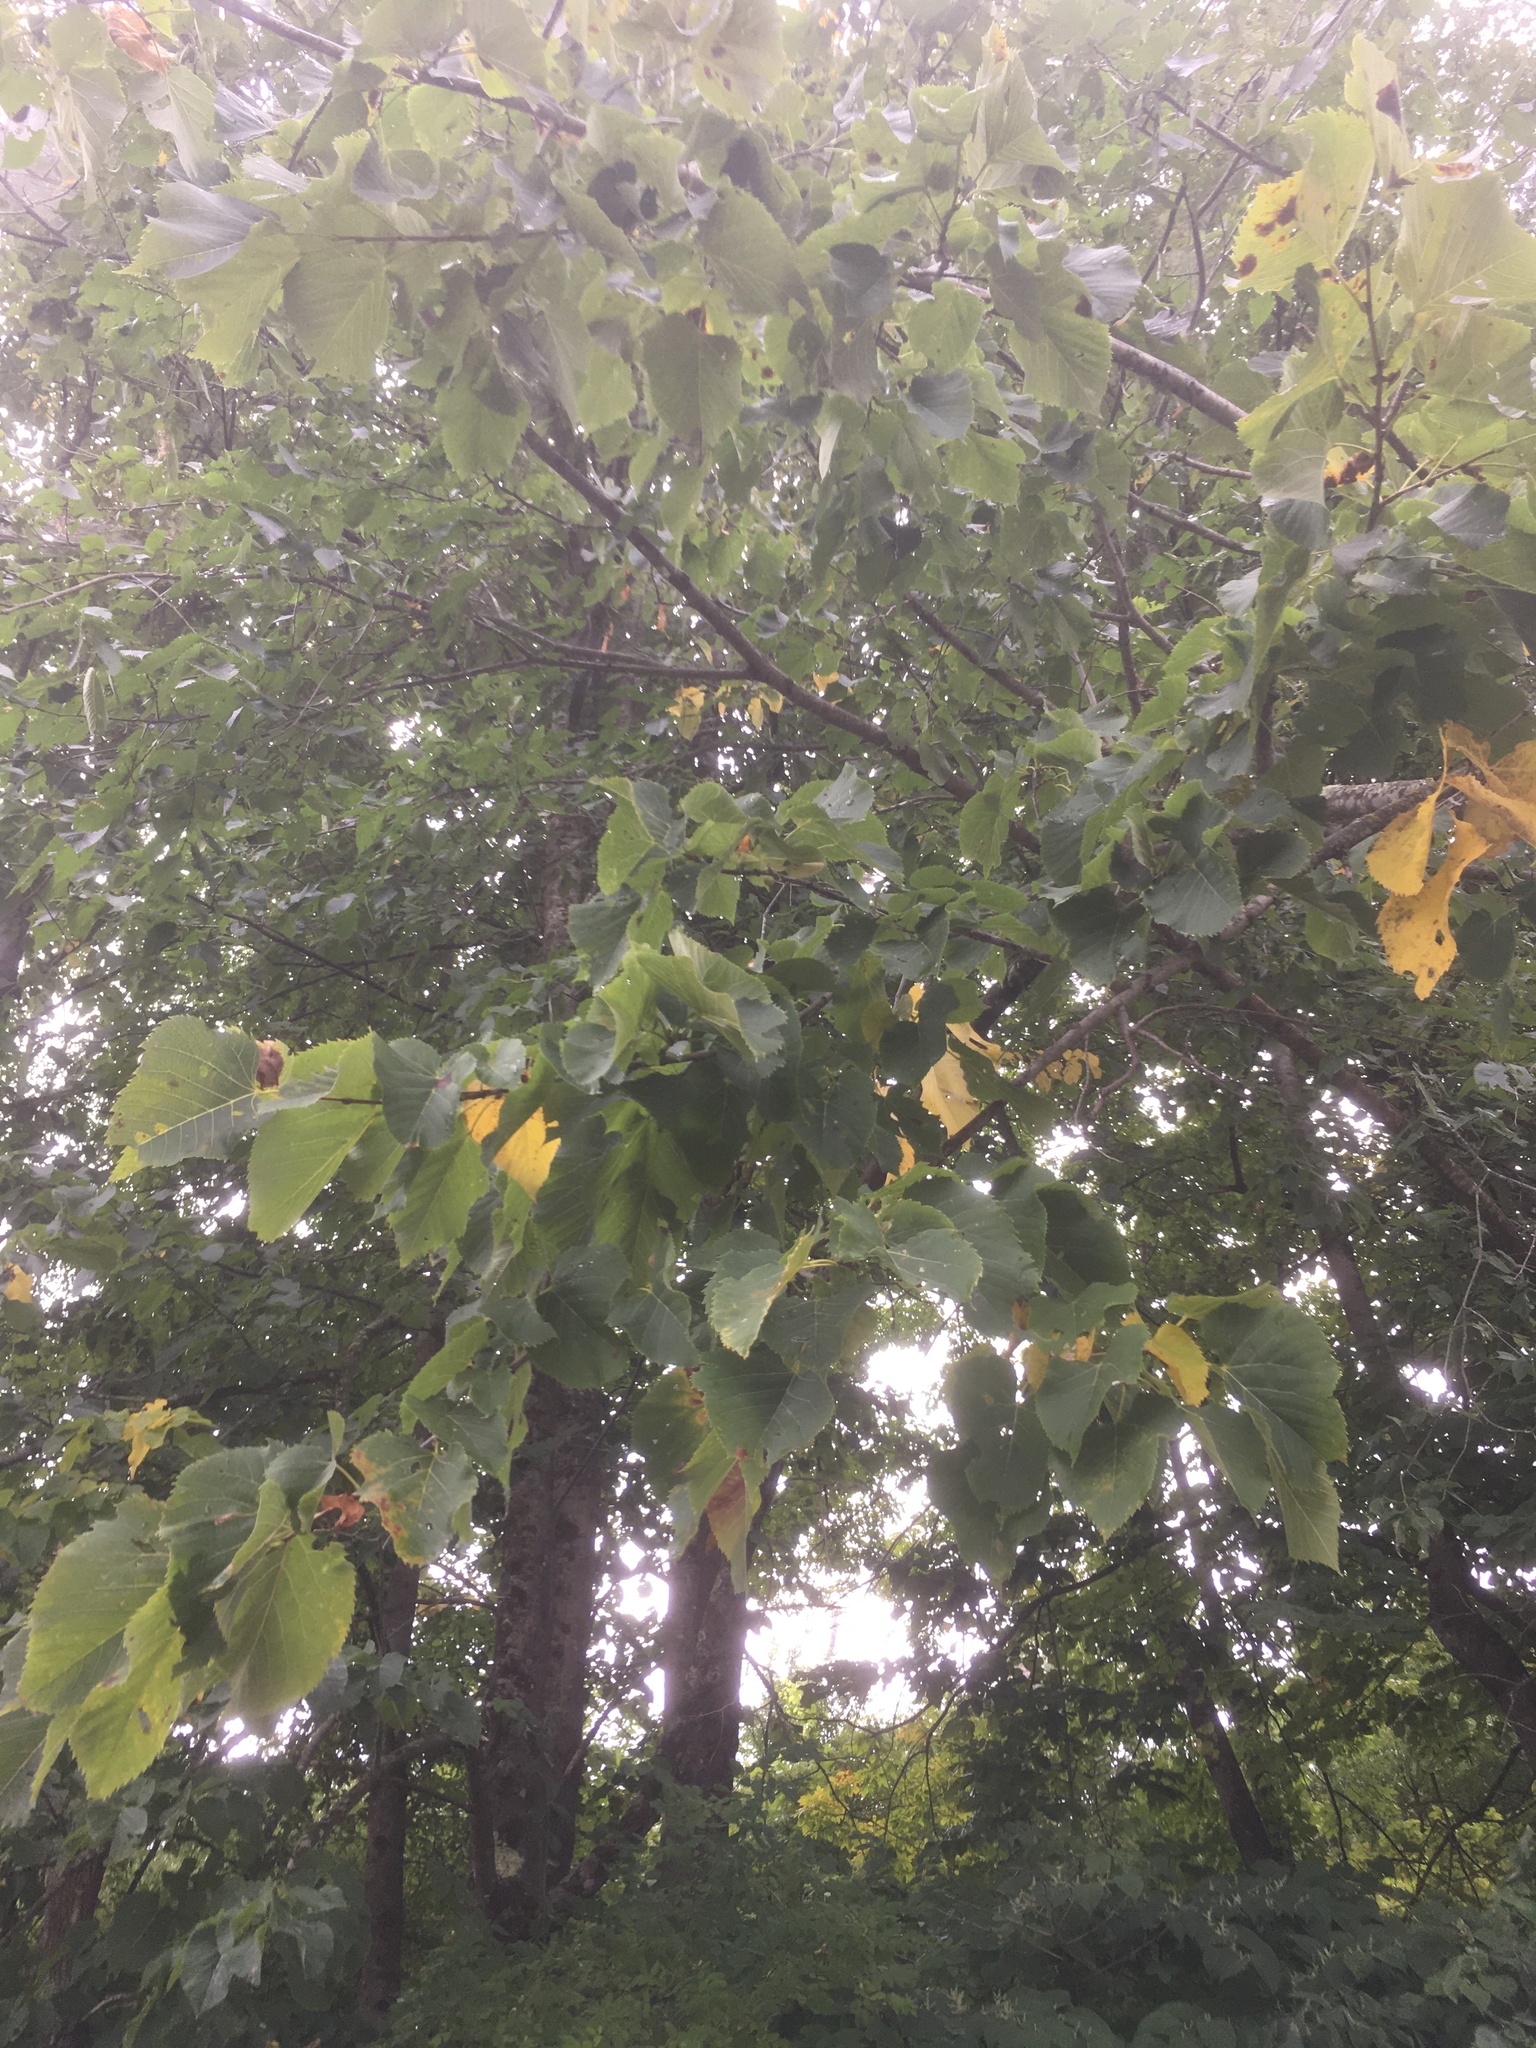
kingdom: Plantae
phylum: Tracheophyta
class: Magnoliopsida
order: Malvales
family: Malvaceae
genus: Tilia
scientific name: Tilia americana
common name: Basswood
